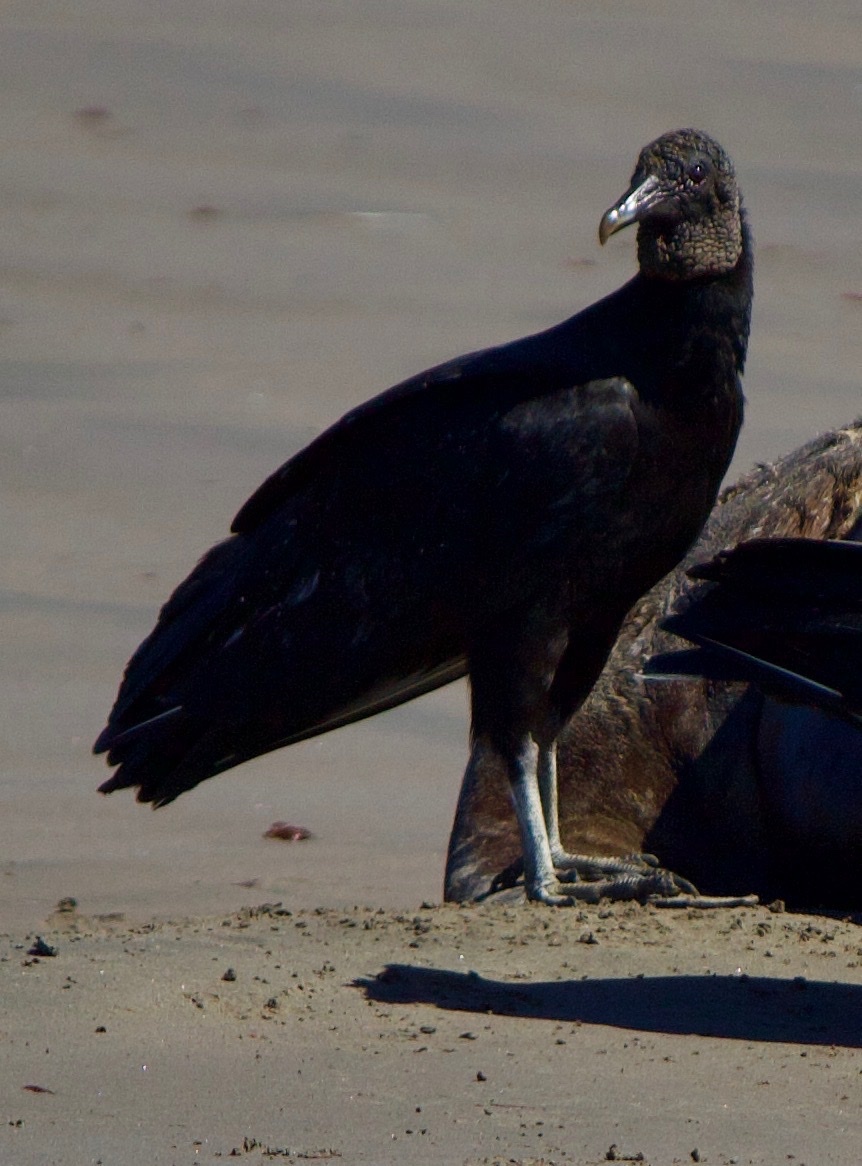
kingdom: Animalia
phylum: Chordata
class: Aves
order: Accipitriformes
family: Cathartidae
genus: Coragyps
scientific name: Coragyps atratus
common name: Black vulture
